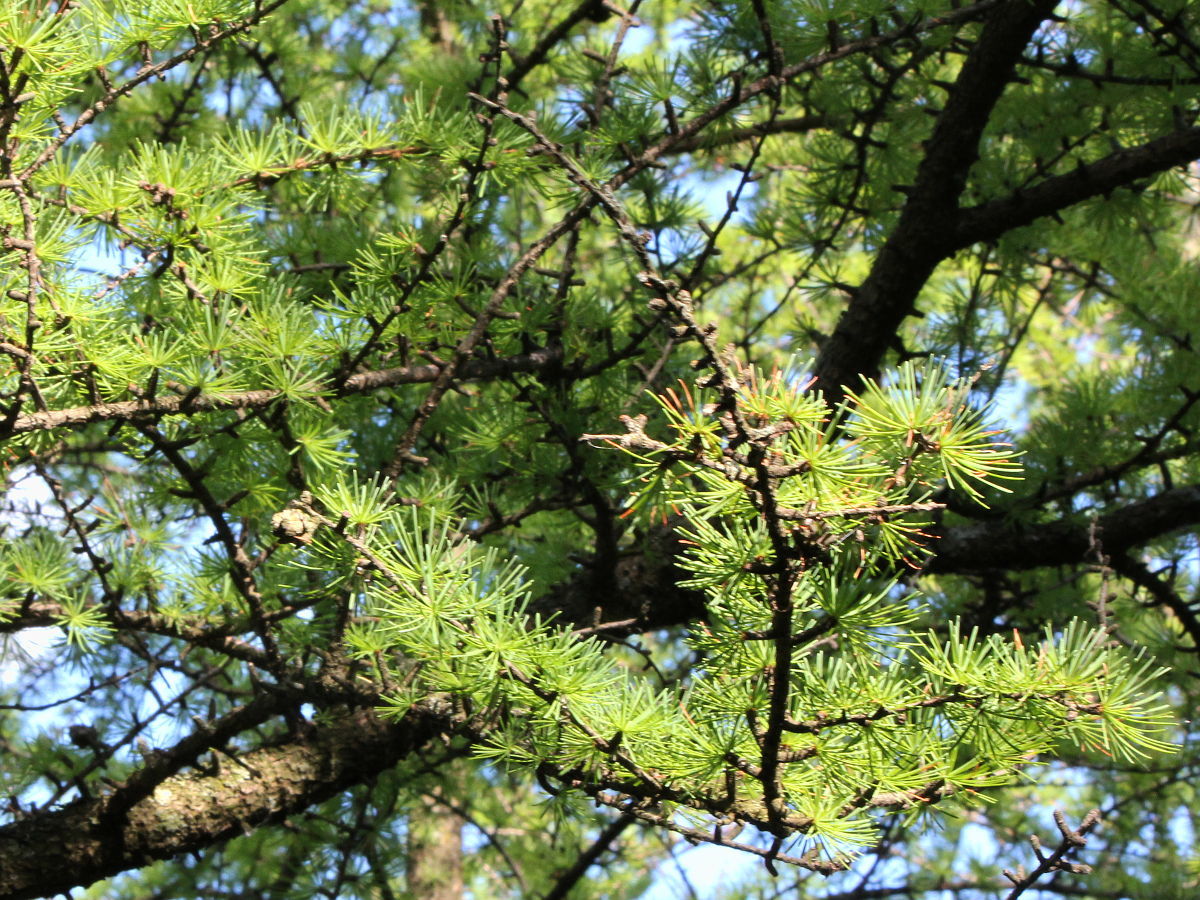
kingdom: Plantae
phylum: Tracheophyta
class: Pinopsida
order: Pinales
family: Pinaceae
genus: Larix
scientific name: Larix laricina
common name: American larch
